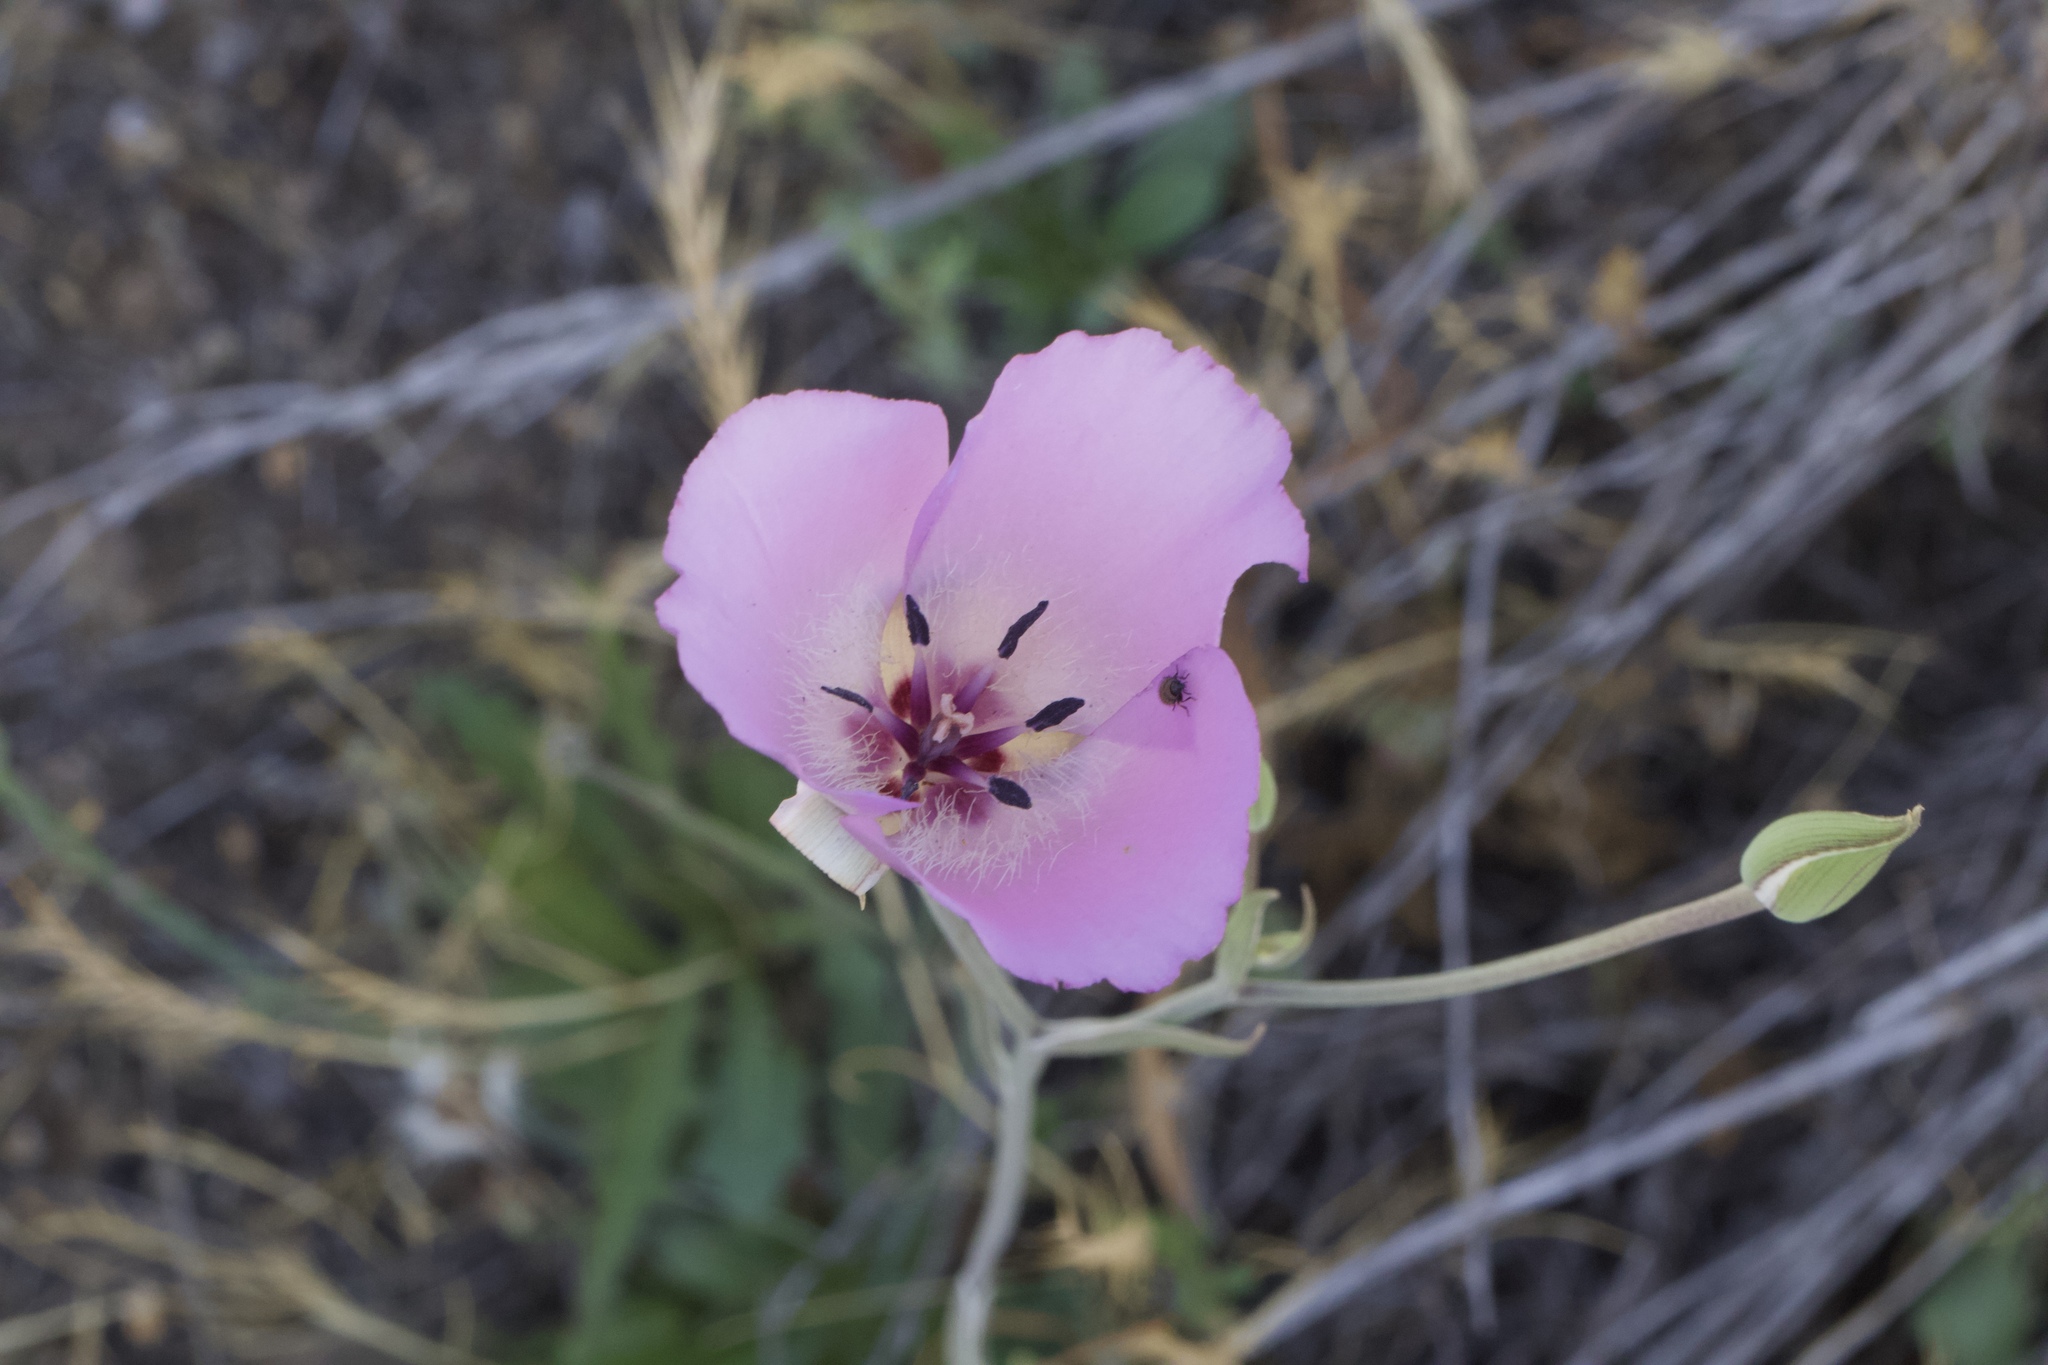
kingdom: Plantae
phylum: Tracheophyta
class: Liliopsida
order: Liliales
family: Liliaceae
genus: Calochortus
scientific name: Calochortus splendens
